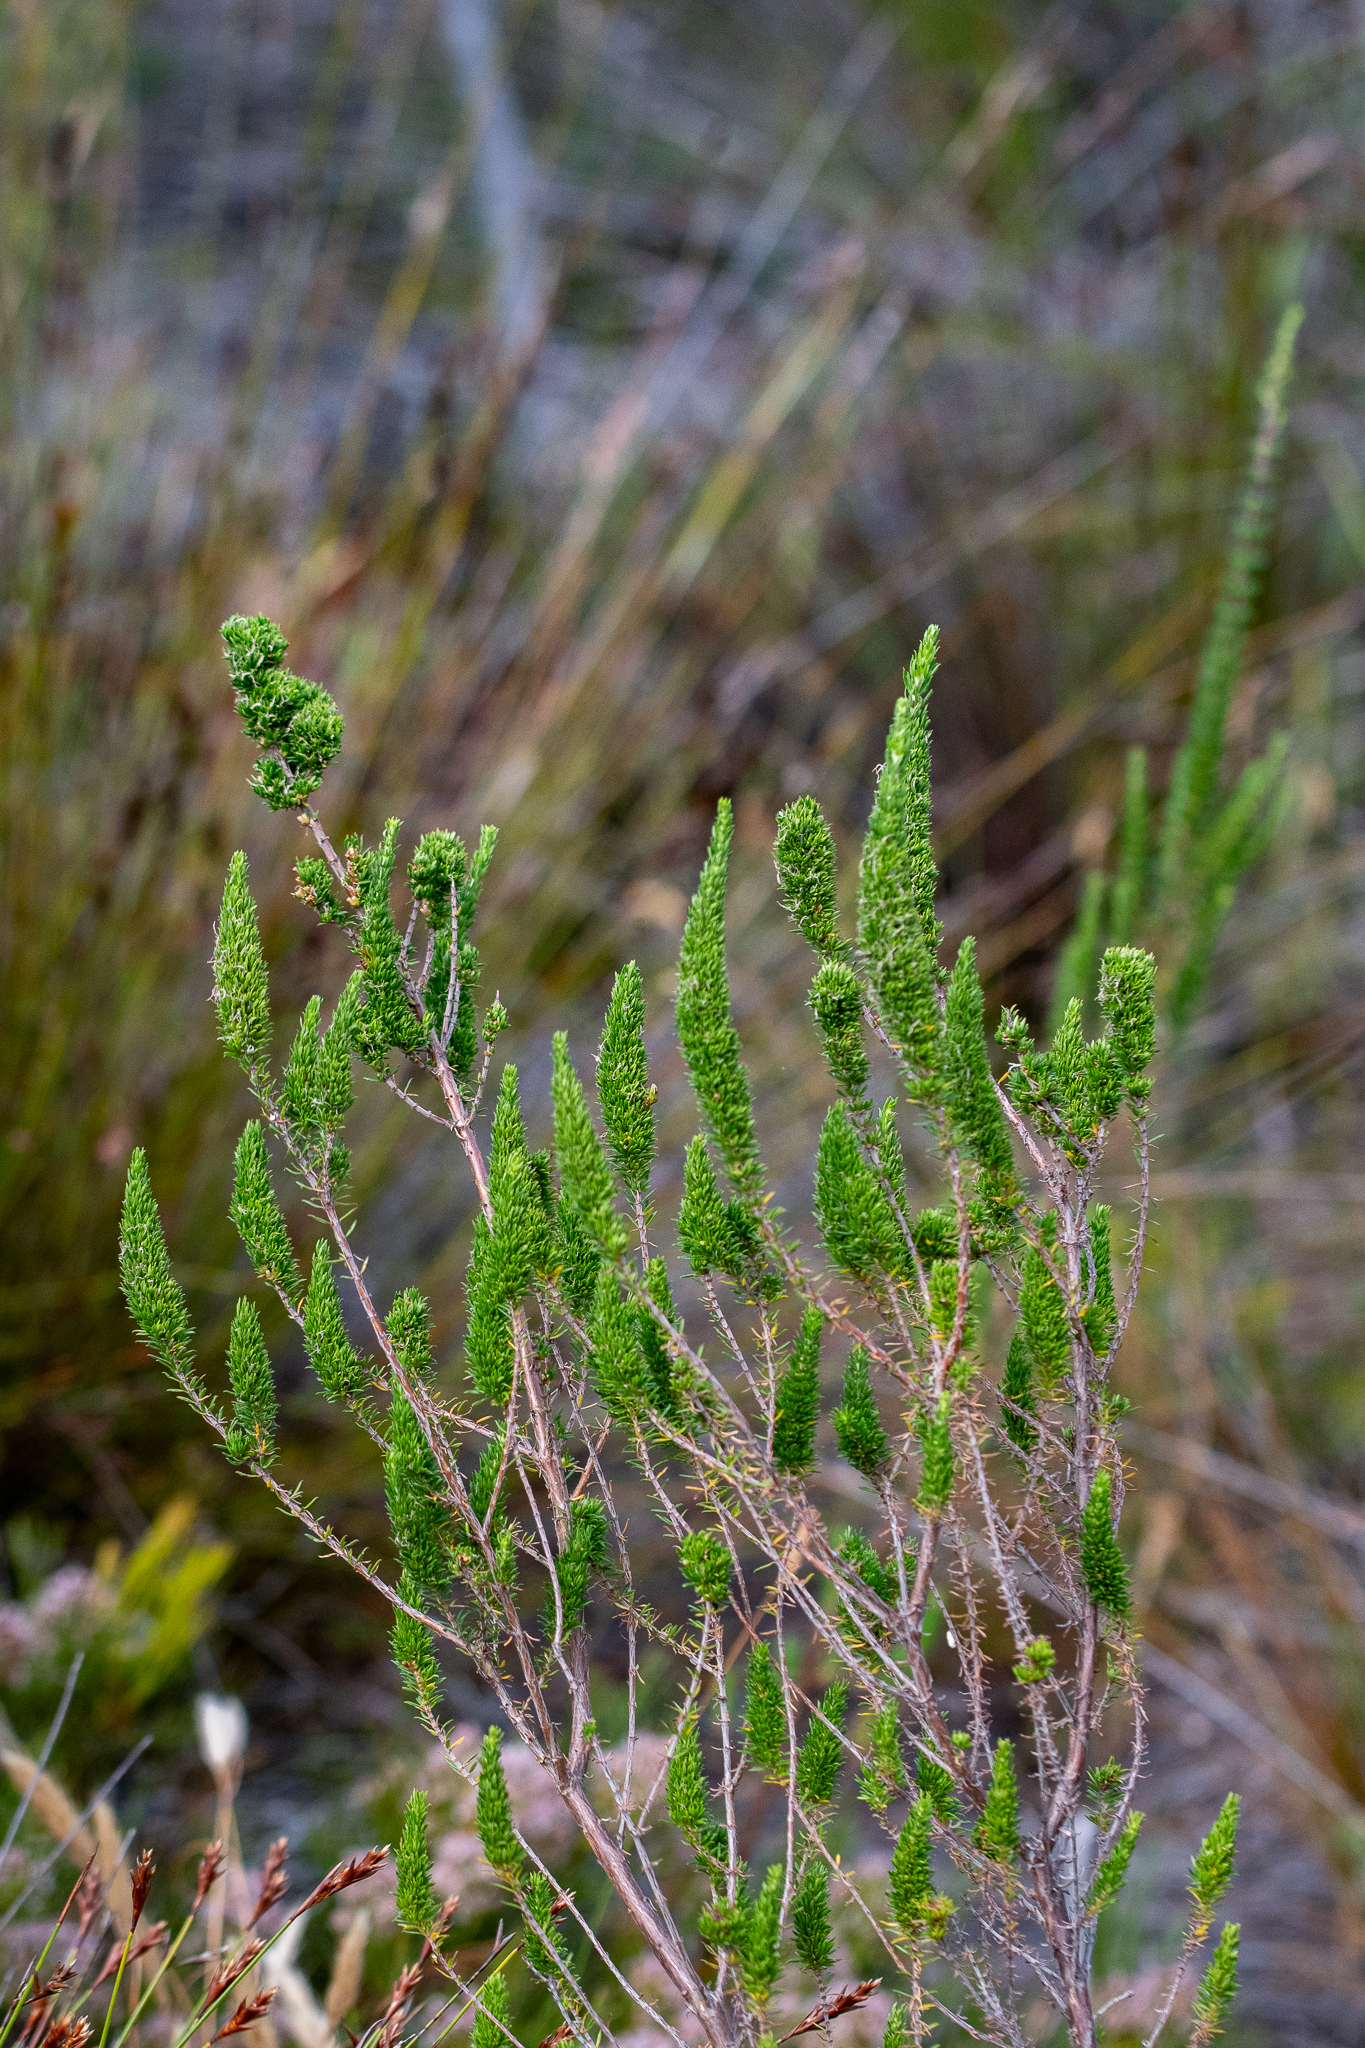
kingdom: Plantae
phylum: Tracheophyta
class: Magnoliopsida
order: Gentianales
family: Rubiaceae
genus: Anthospermum
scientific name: Anthospermum aethiopicum
